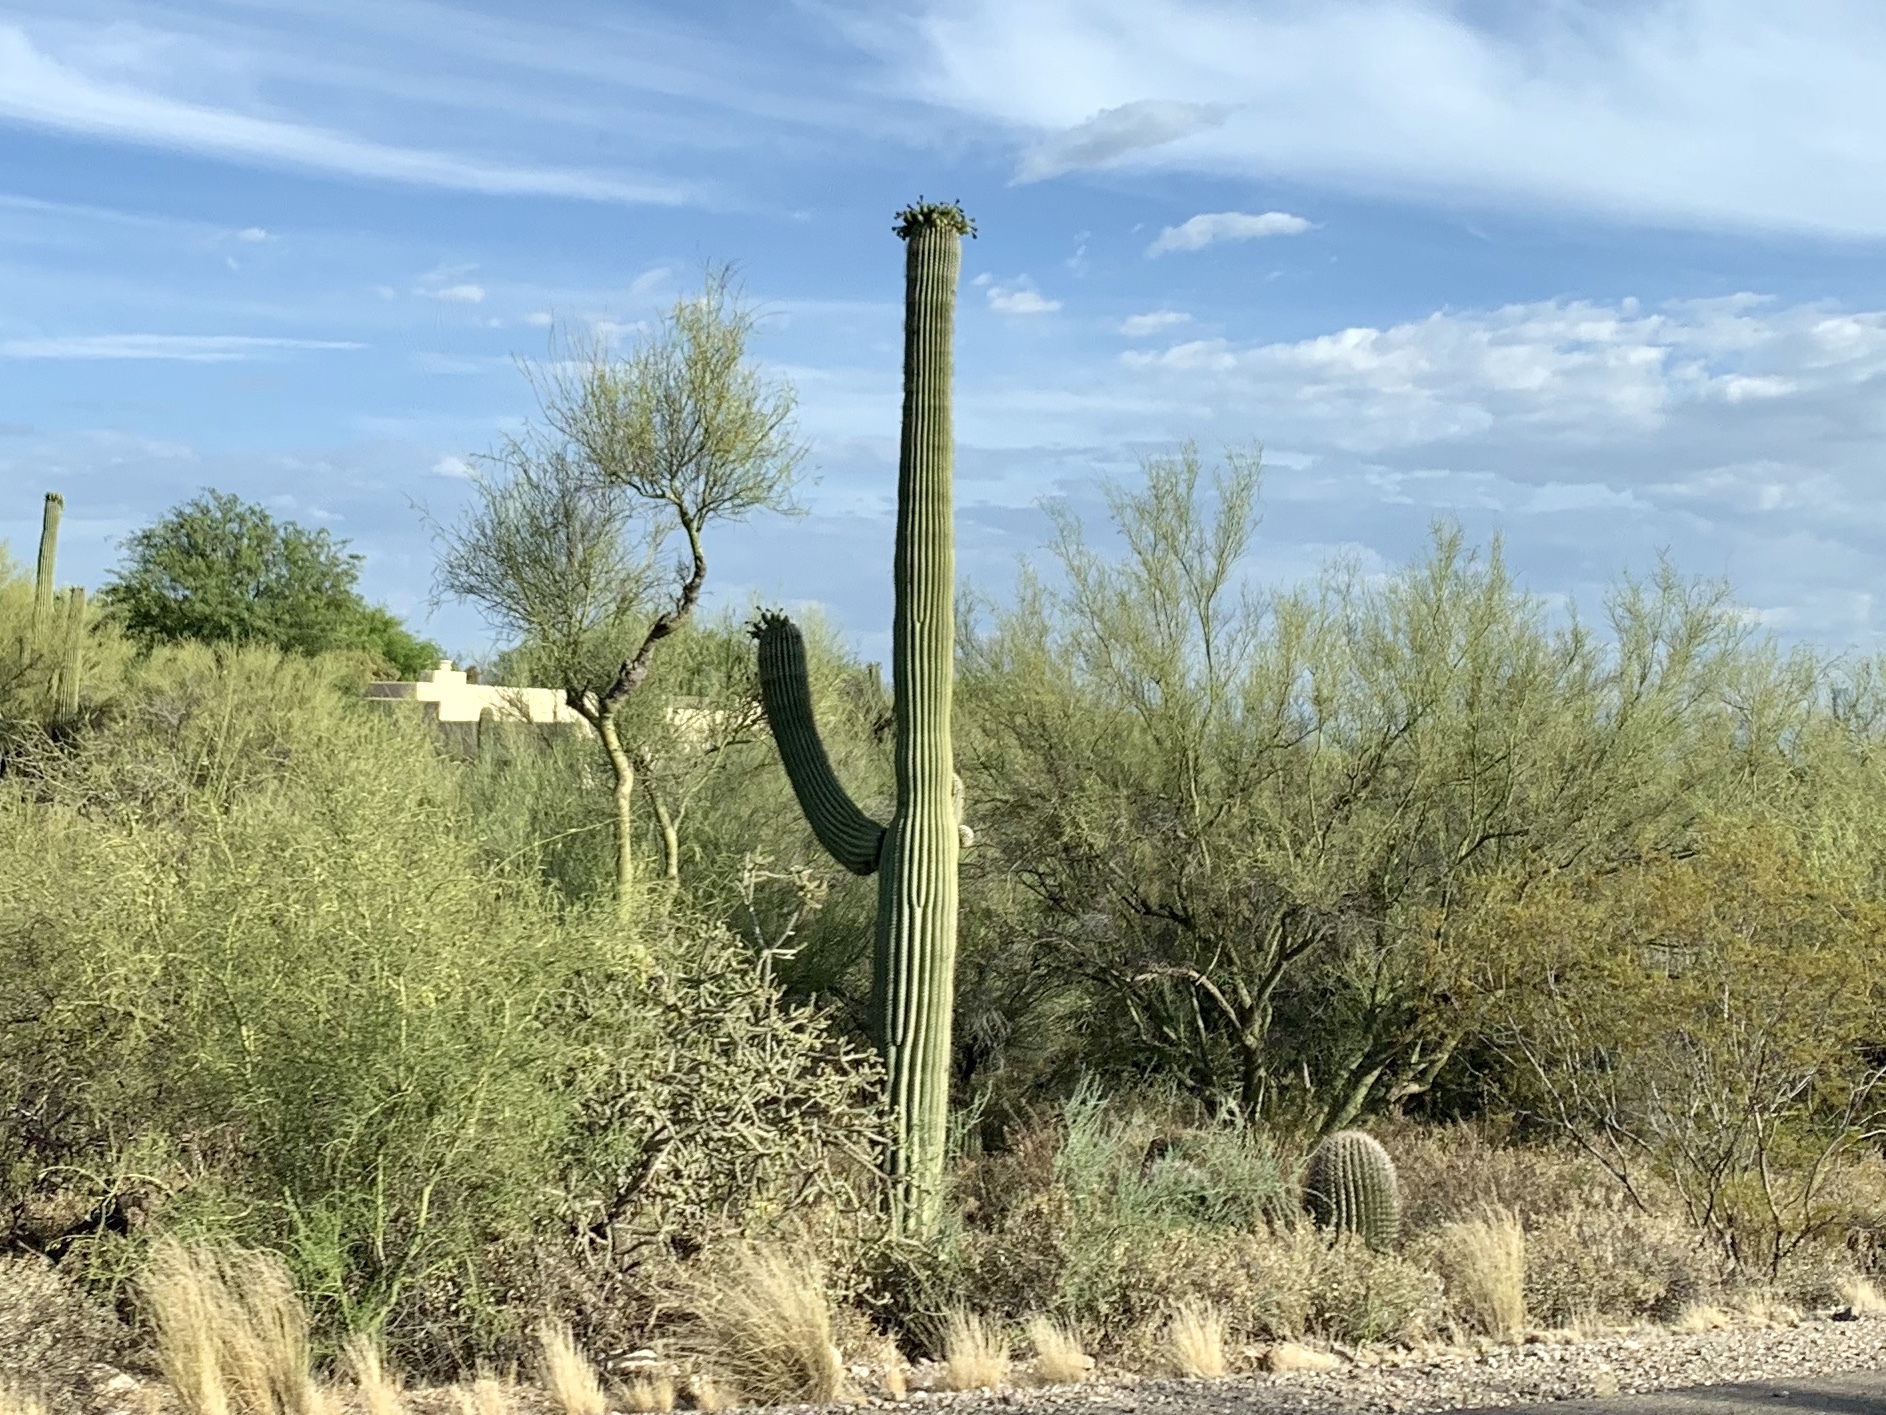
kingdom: Plantae
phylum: Tracheophyta
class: Magnoliopsida
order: Caryophyllales
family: Cactaceae
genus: Carnegiea
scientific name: Carnegiea gigantea
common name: Saguaro
